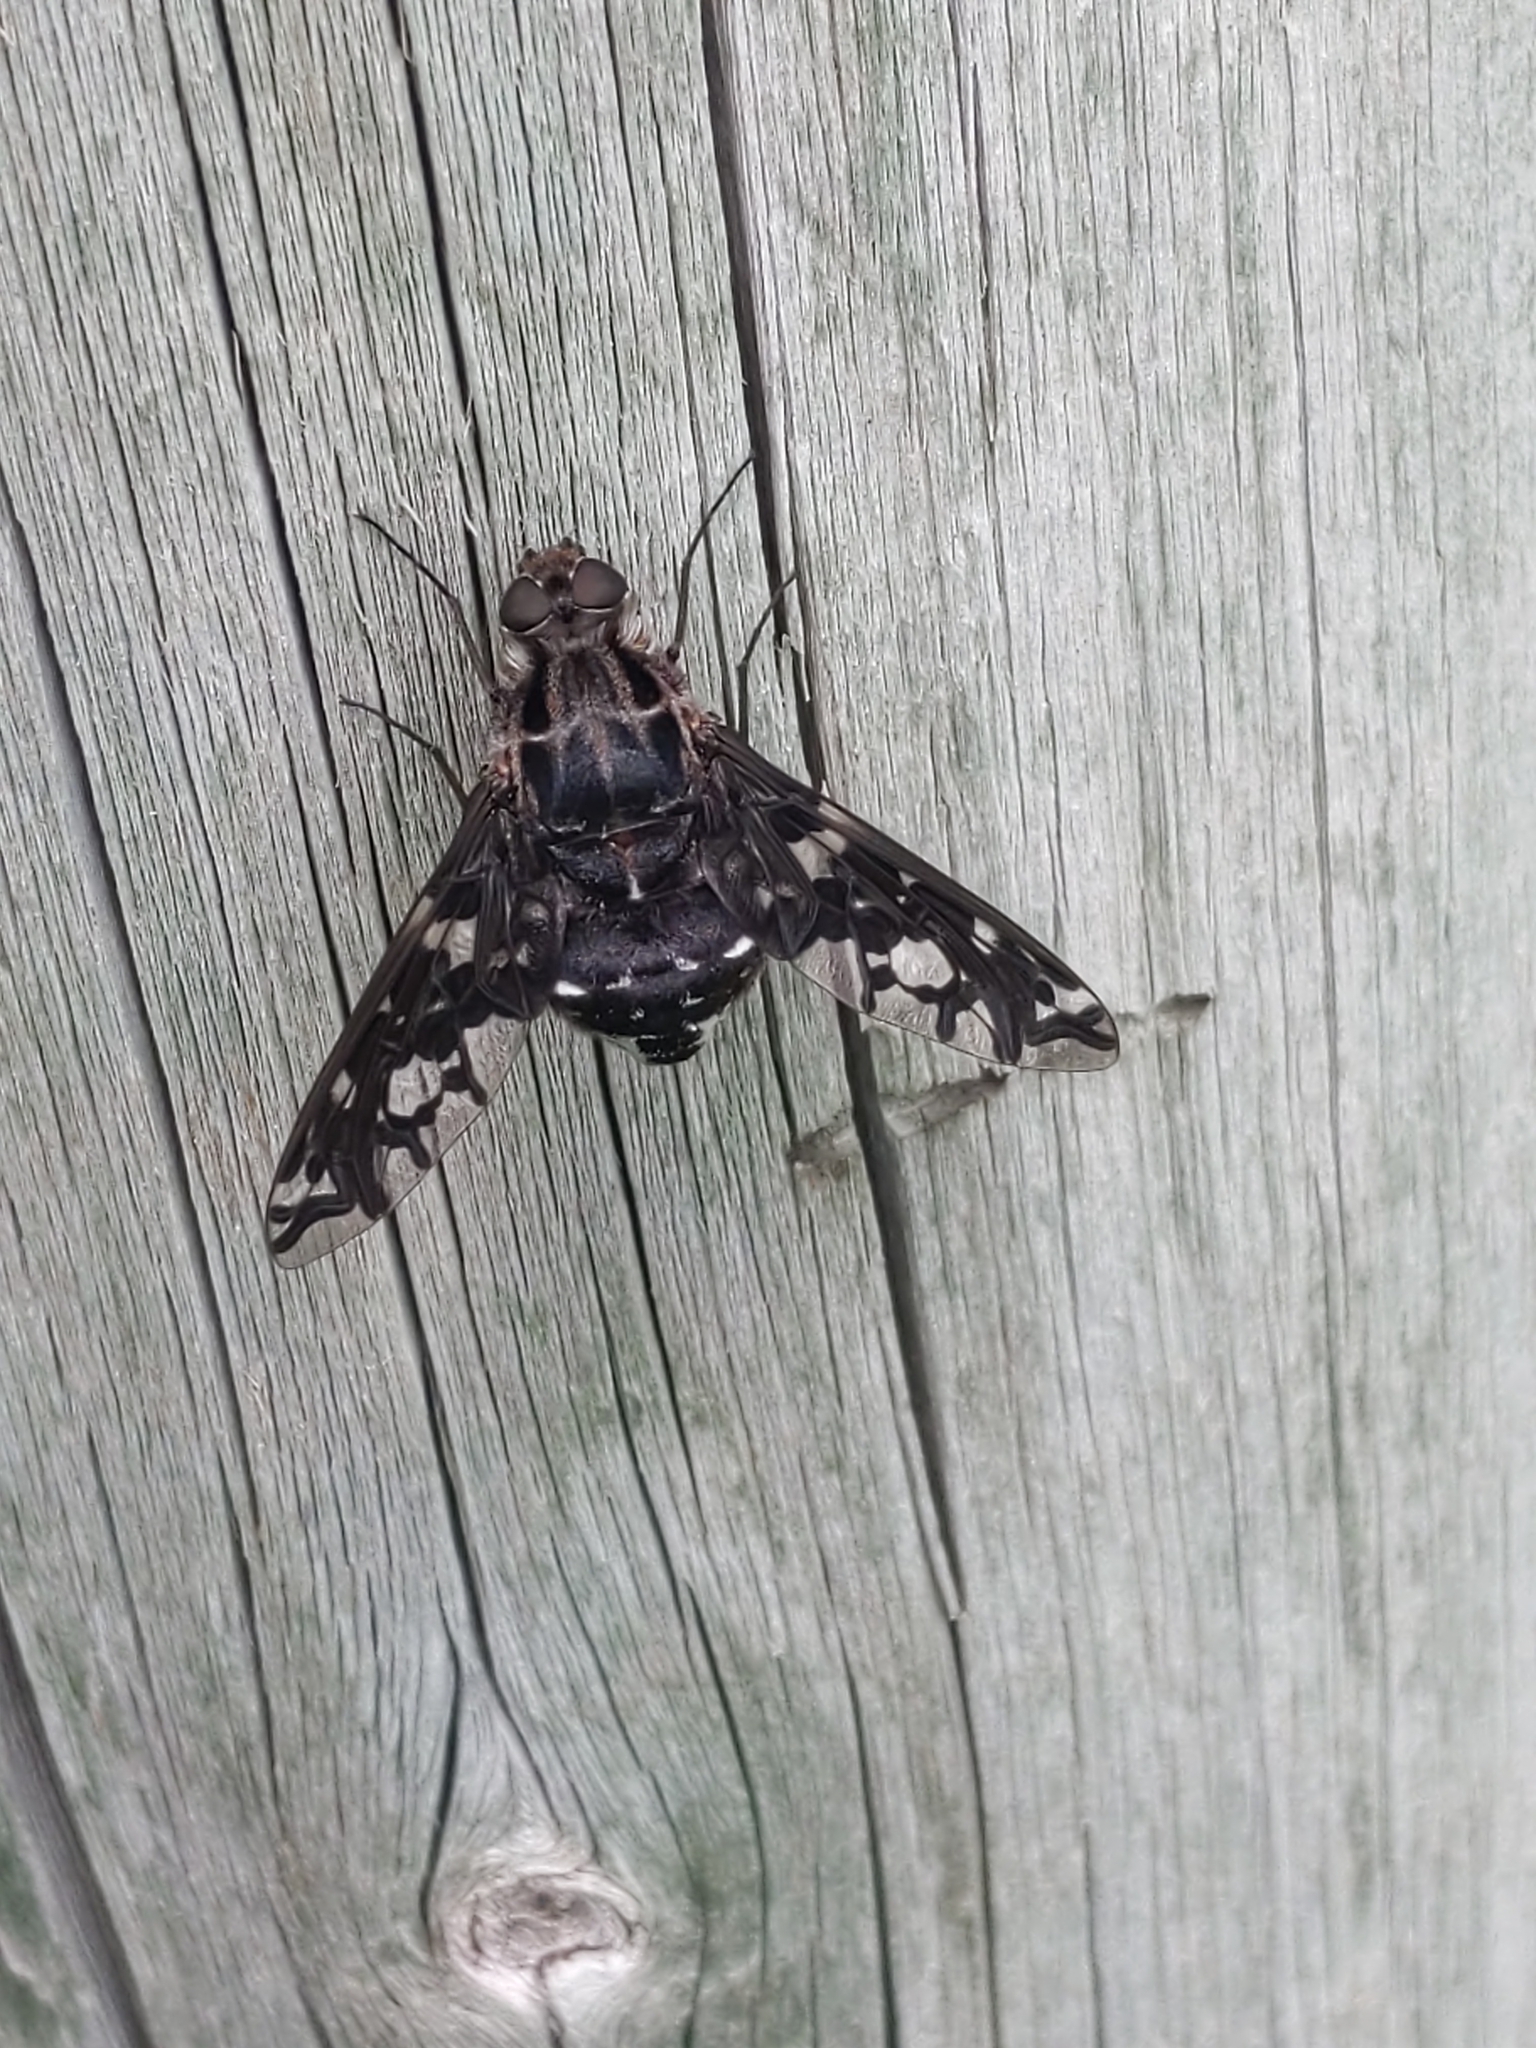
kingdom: Animalia
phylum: Arthropoda
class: Insecta
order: Diptera
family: Bombyliidae
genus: Xenox
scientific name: Xenox tigrinus
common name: Tiger bee fly
